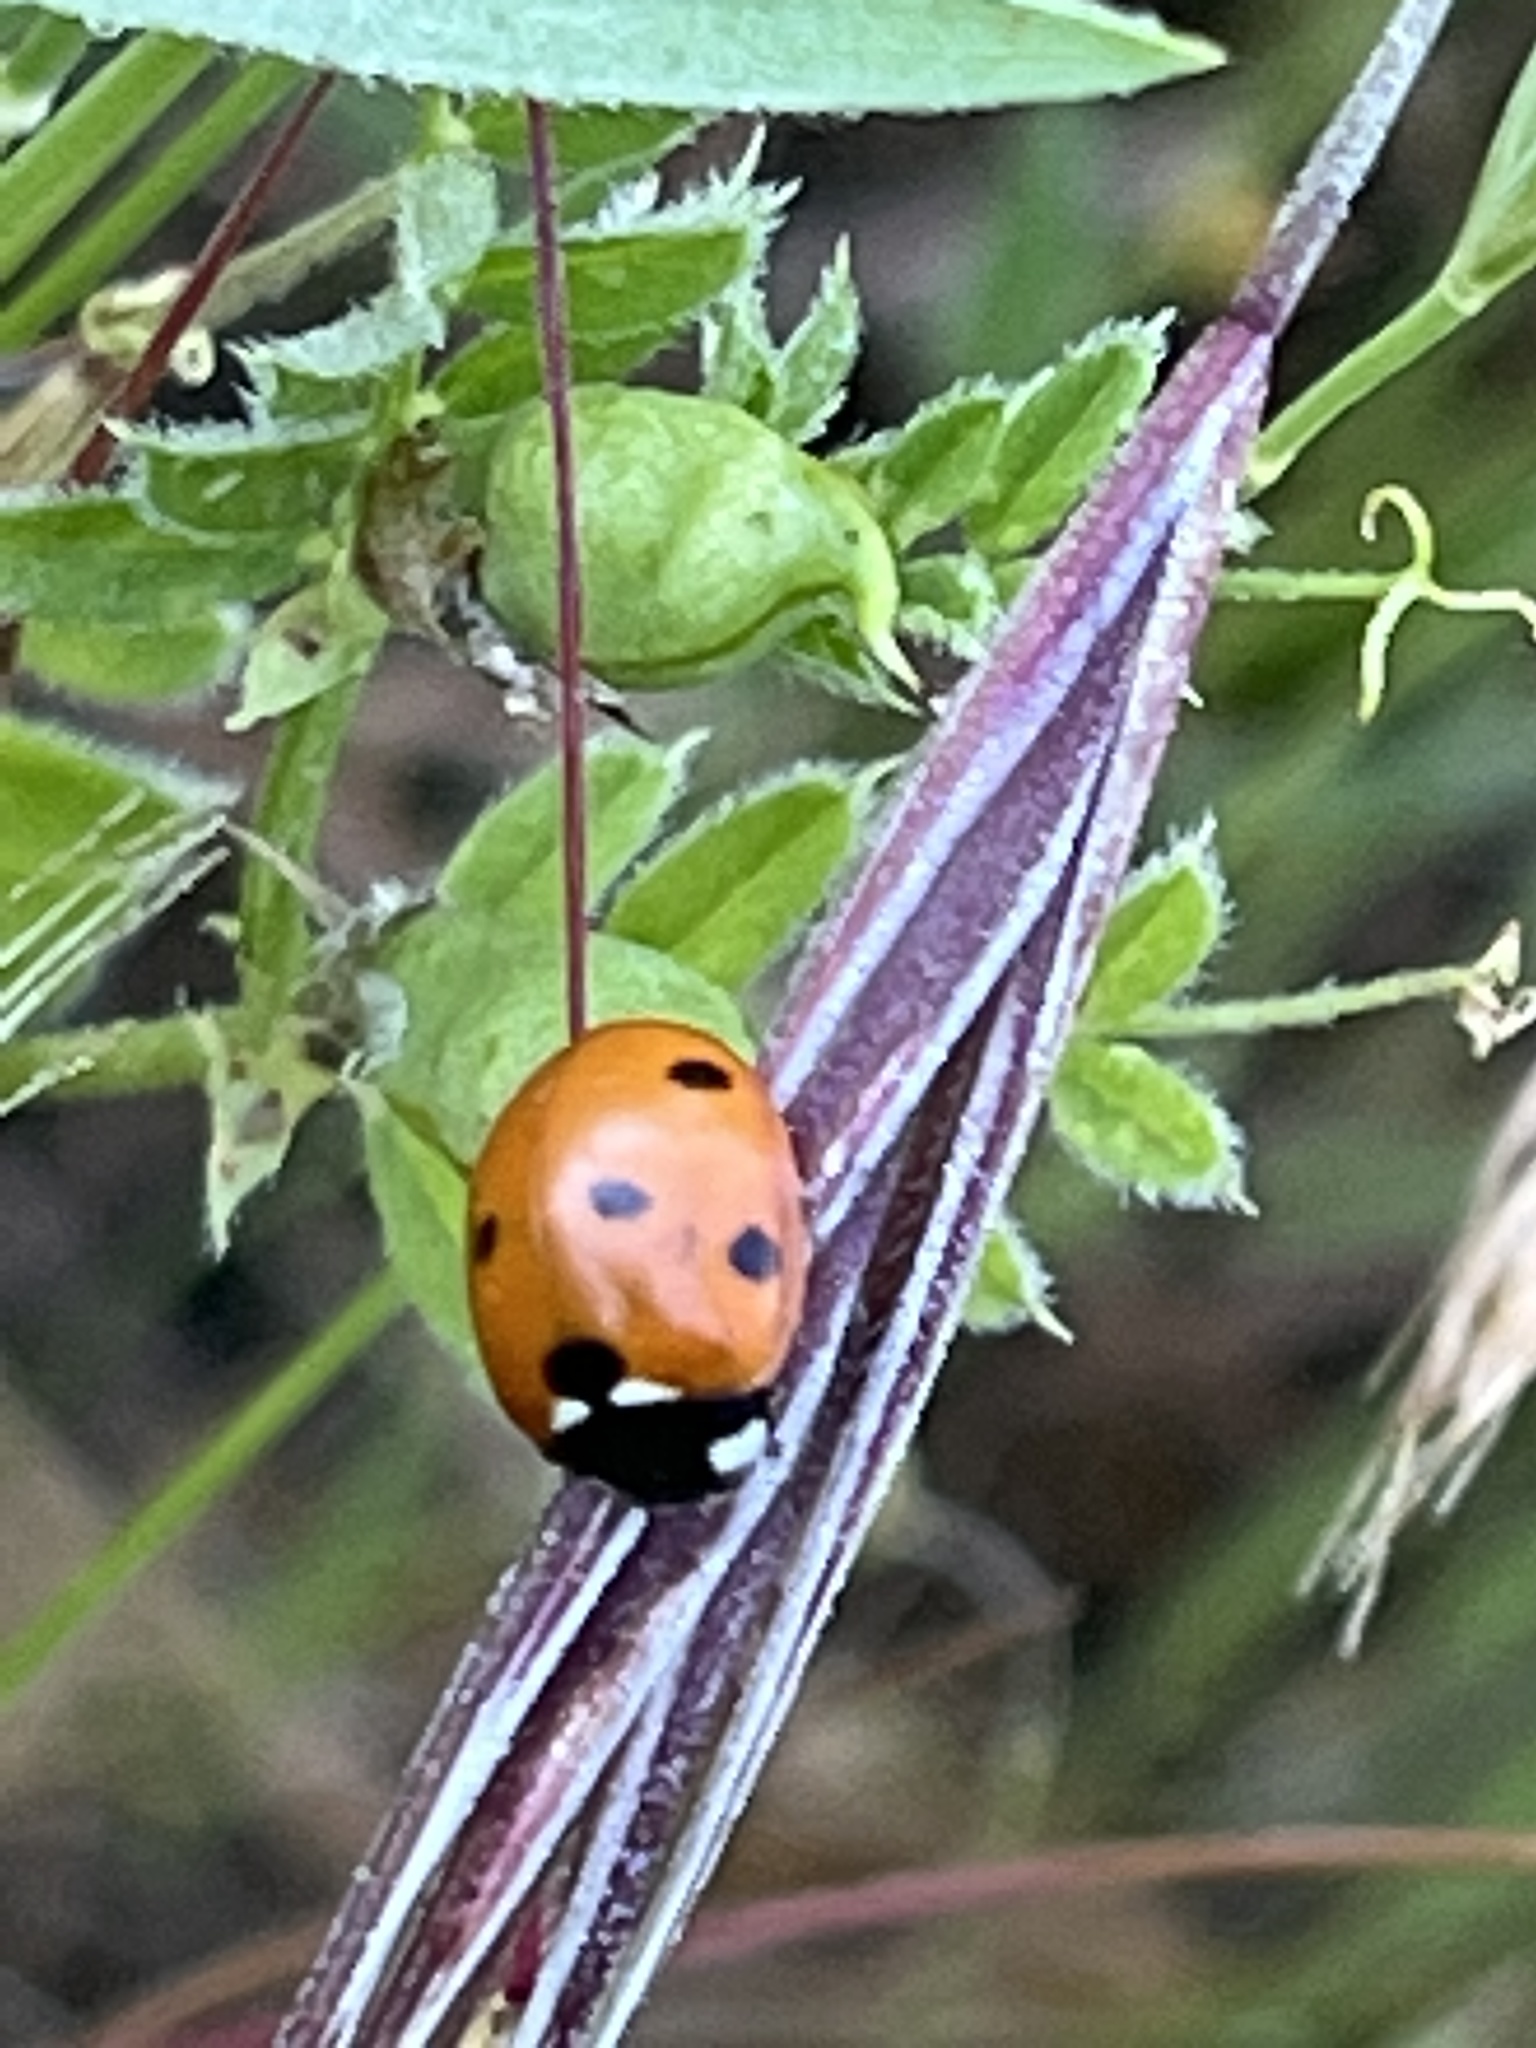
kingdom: Animalia
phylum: Arthropoda
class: Insecta
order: Coleoptera
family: Coccinellidae
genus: Coccinella
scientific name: Coccinella septempunctata
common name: Sevenspotted lady beetle
